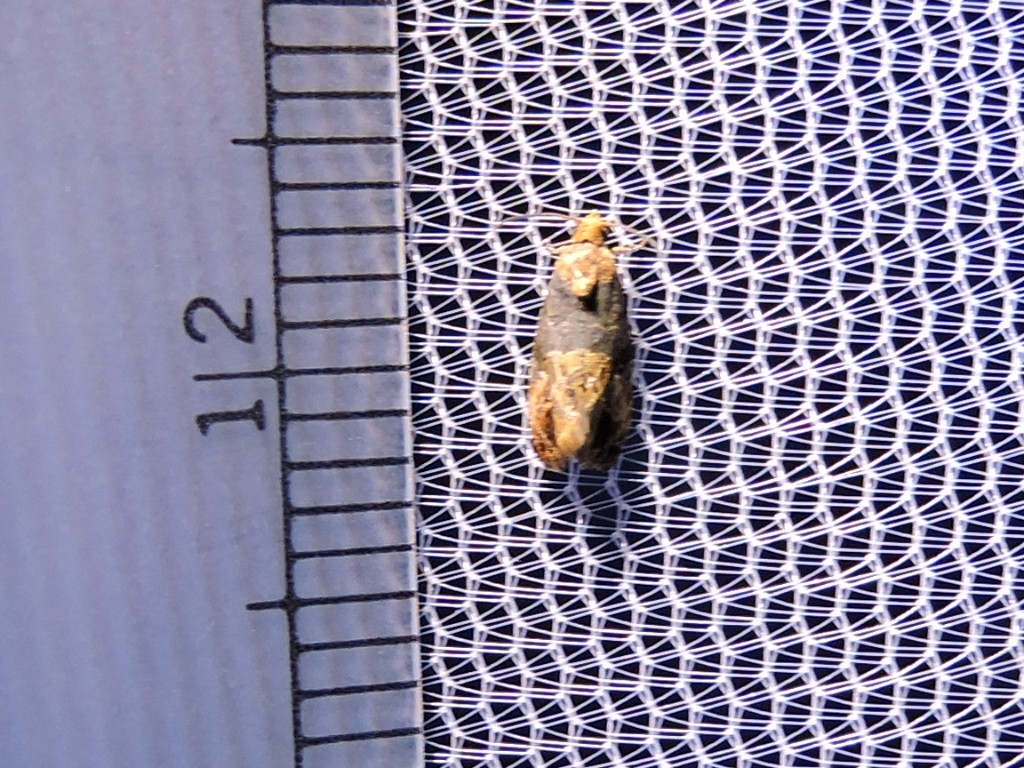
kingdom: Animalia
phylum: Arthropoda
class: Insecta
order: Lepidoptera
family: Tortricidae
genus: Paralobesia
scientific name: Paralobesia viteana
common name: Grape berry moth
